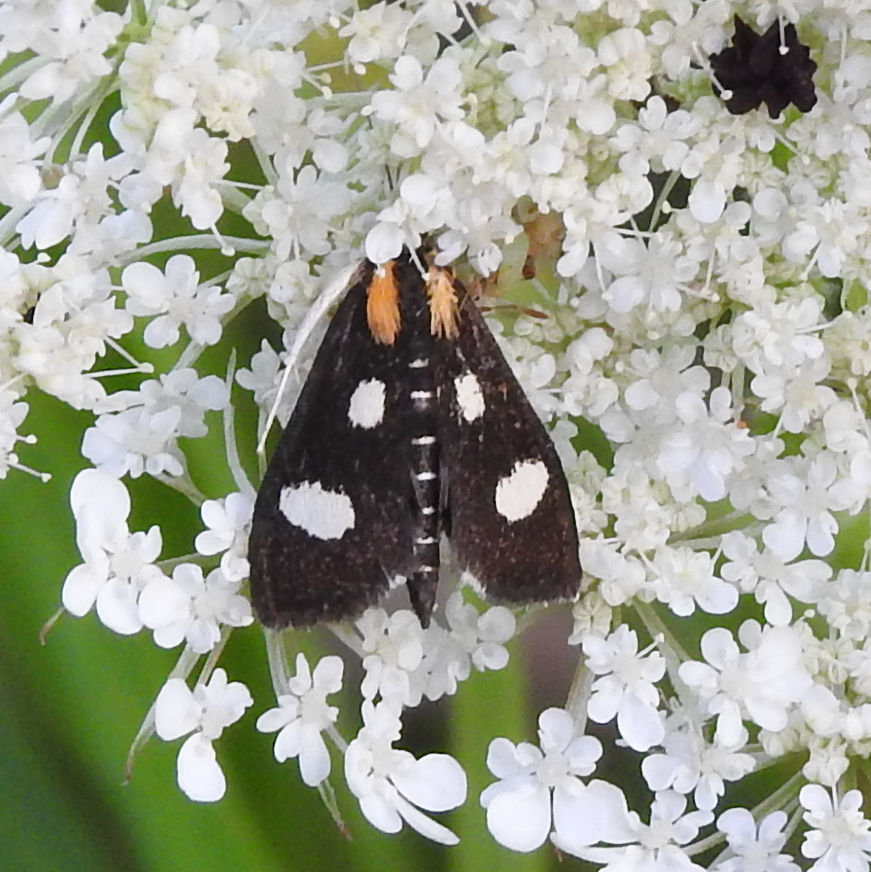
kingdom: Animalia
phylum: Arthropoda
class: Insecta
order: Lepidoptera
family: Crambidae
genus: Anania
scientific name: Anania funebris
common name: White-spotted sable moth
